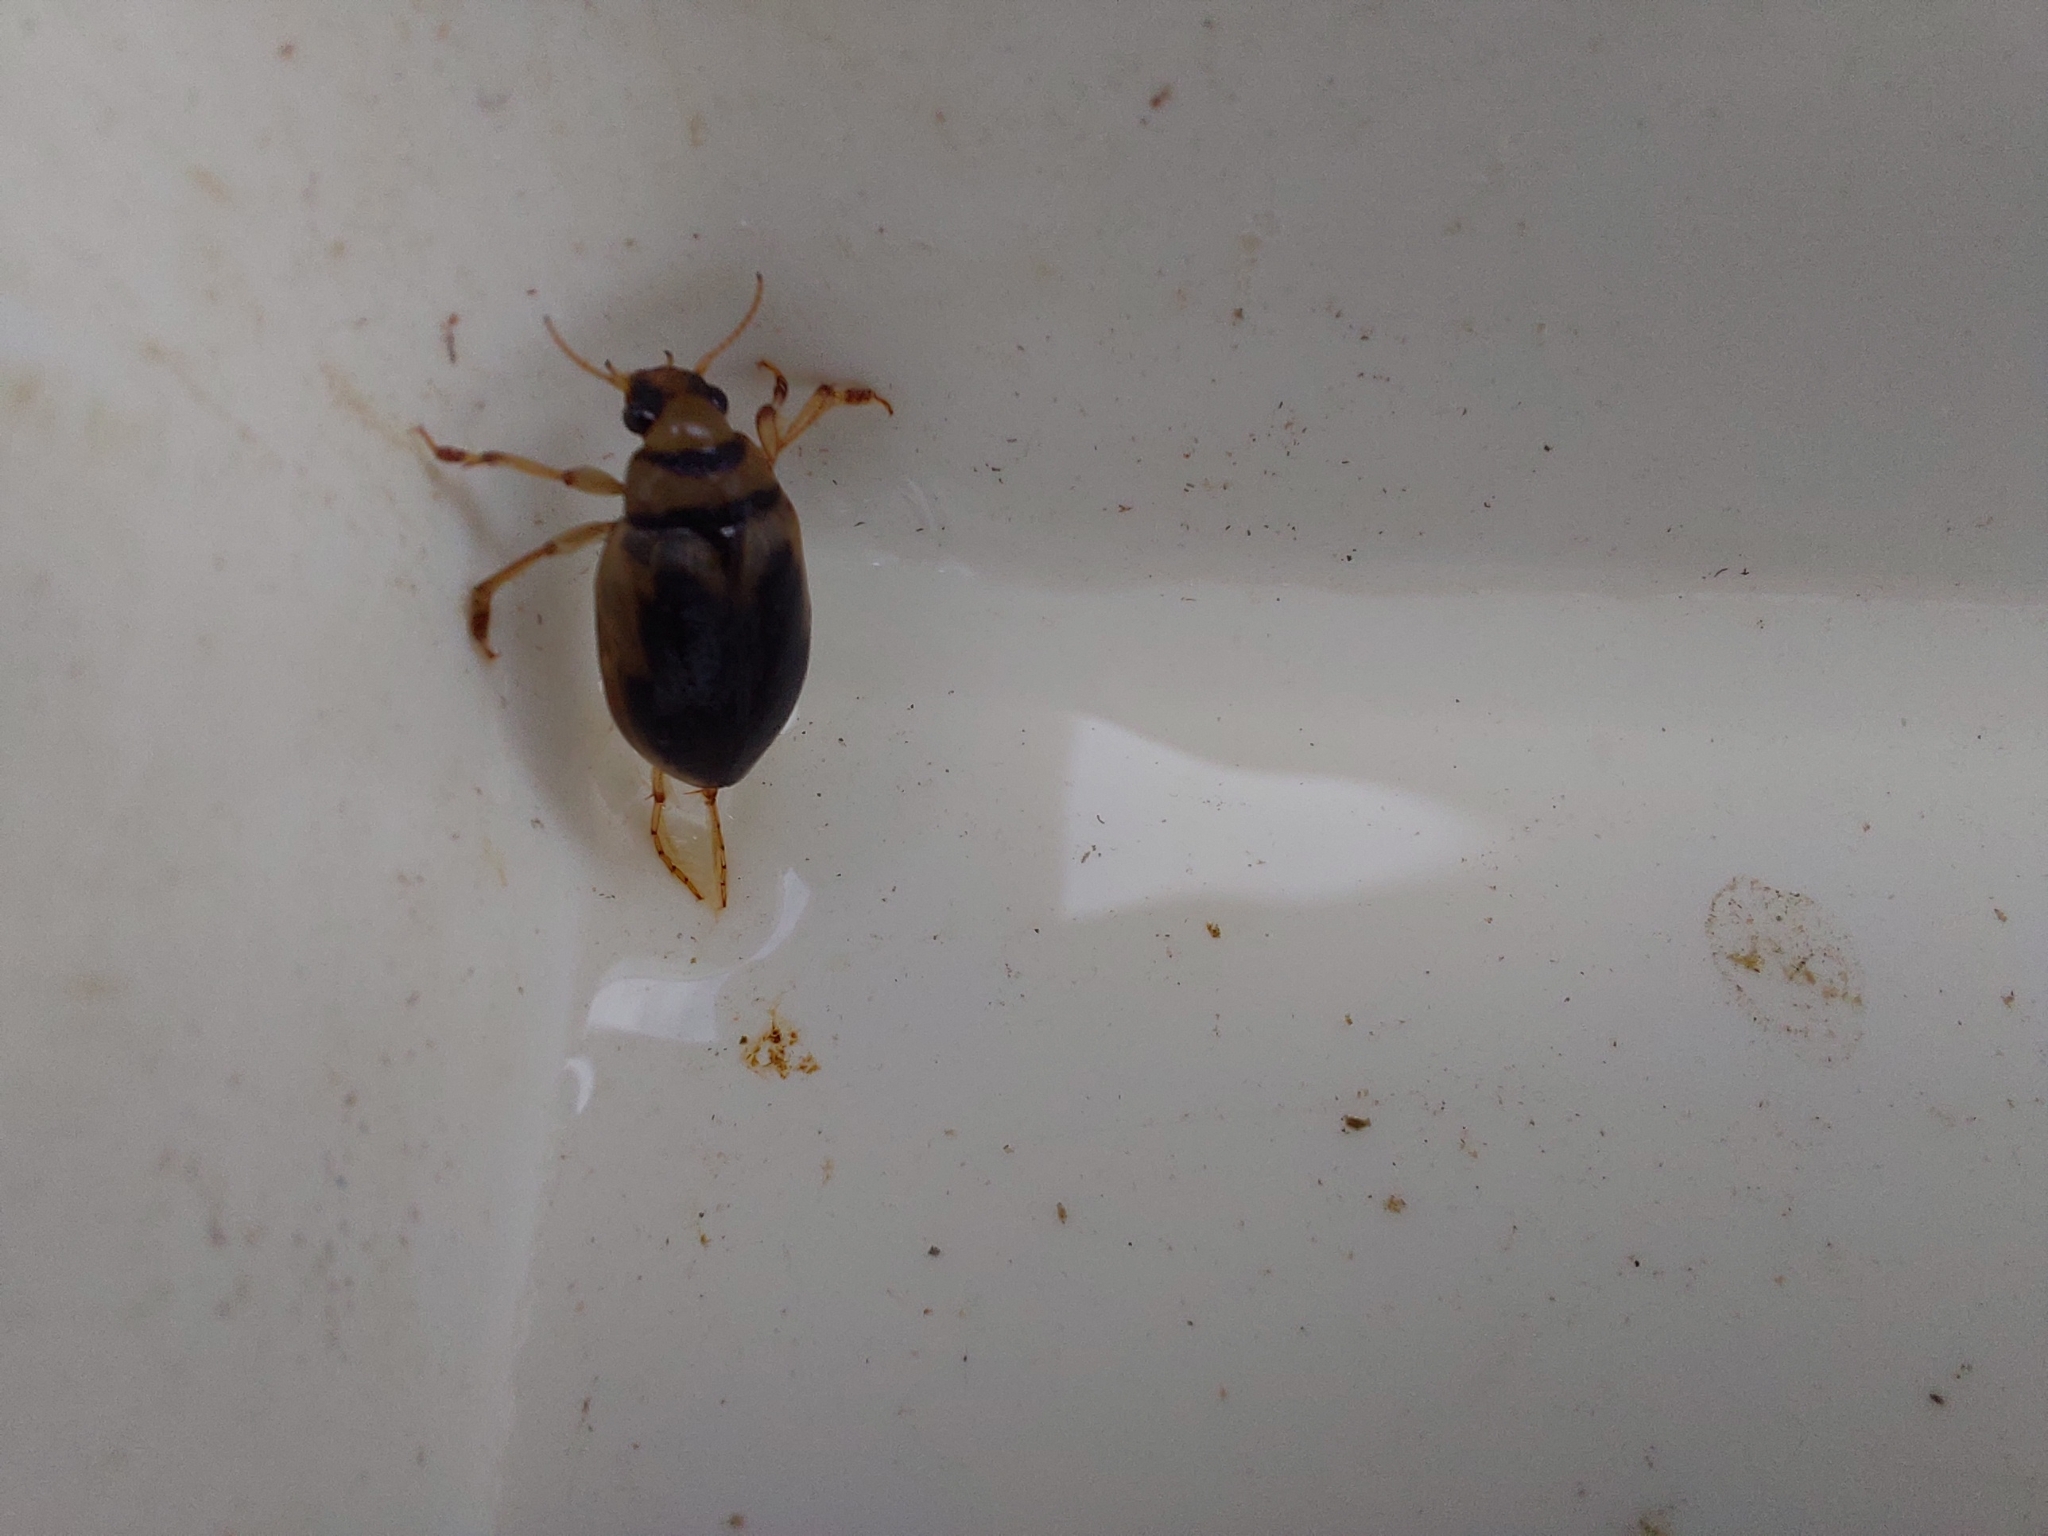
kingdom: Animalia
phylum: Arthropoda
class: Insecta
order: Coleoptera
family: Hygrobiidae
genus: Hygrobia
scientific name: Hygrobia hermanni
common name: Screech beetle
